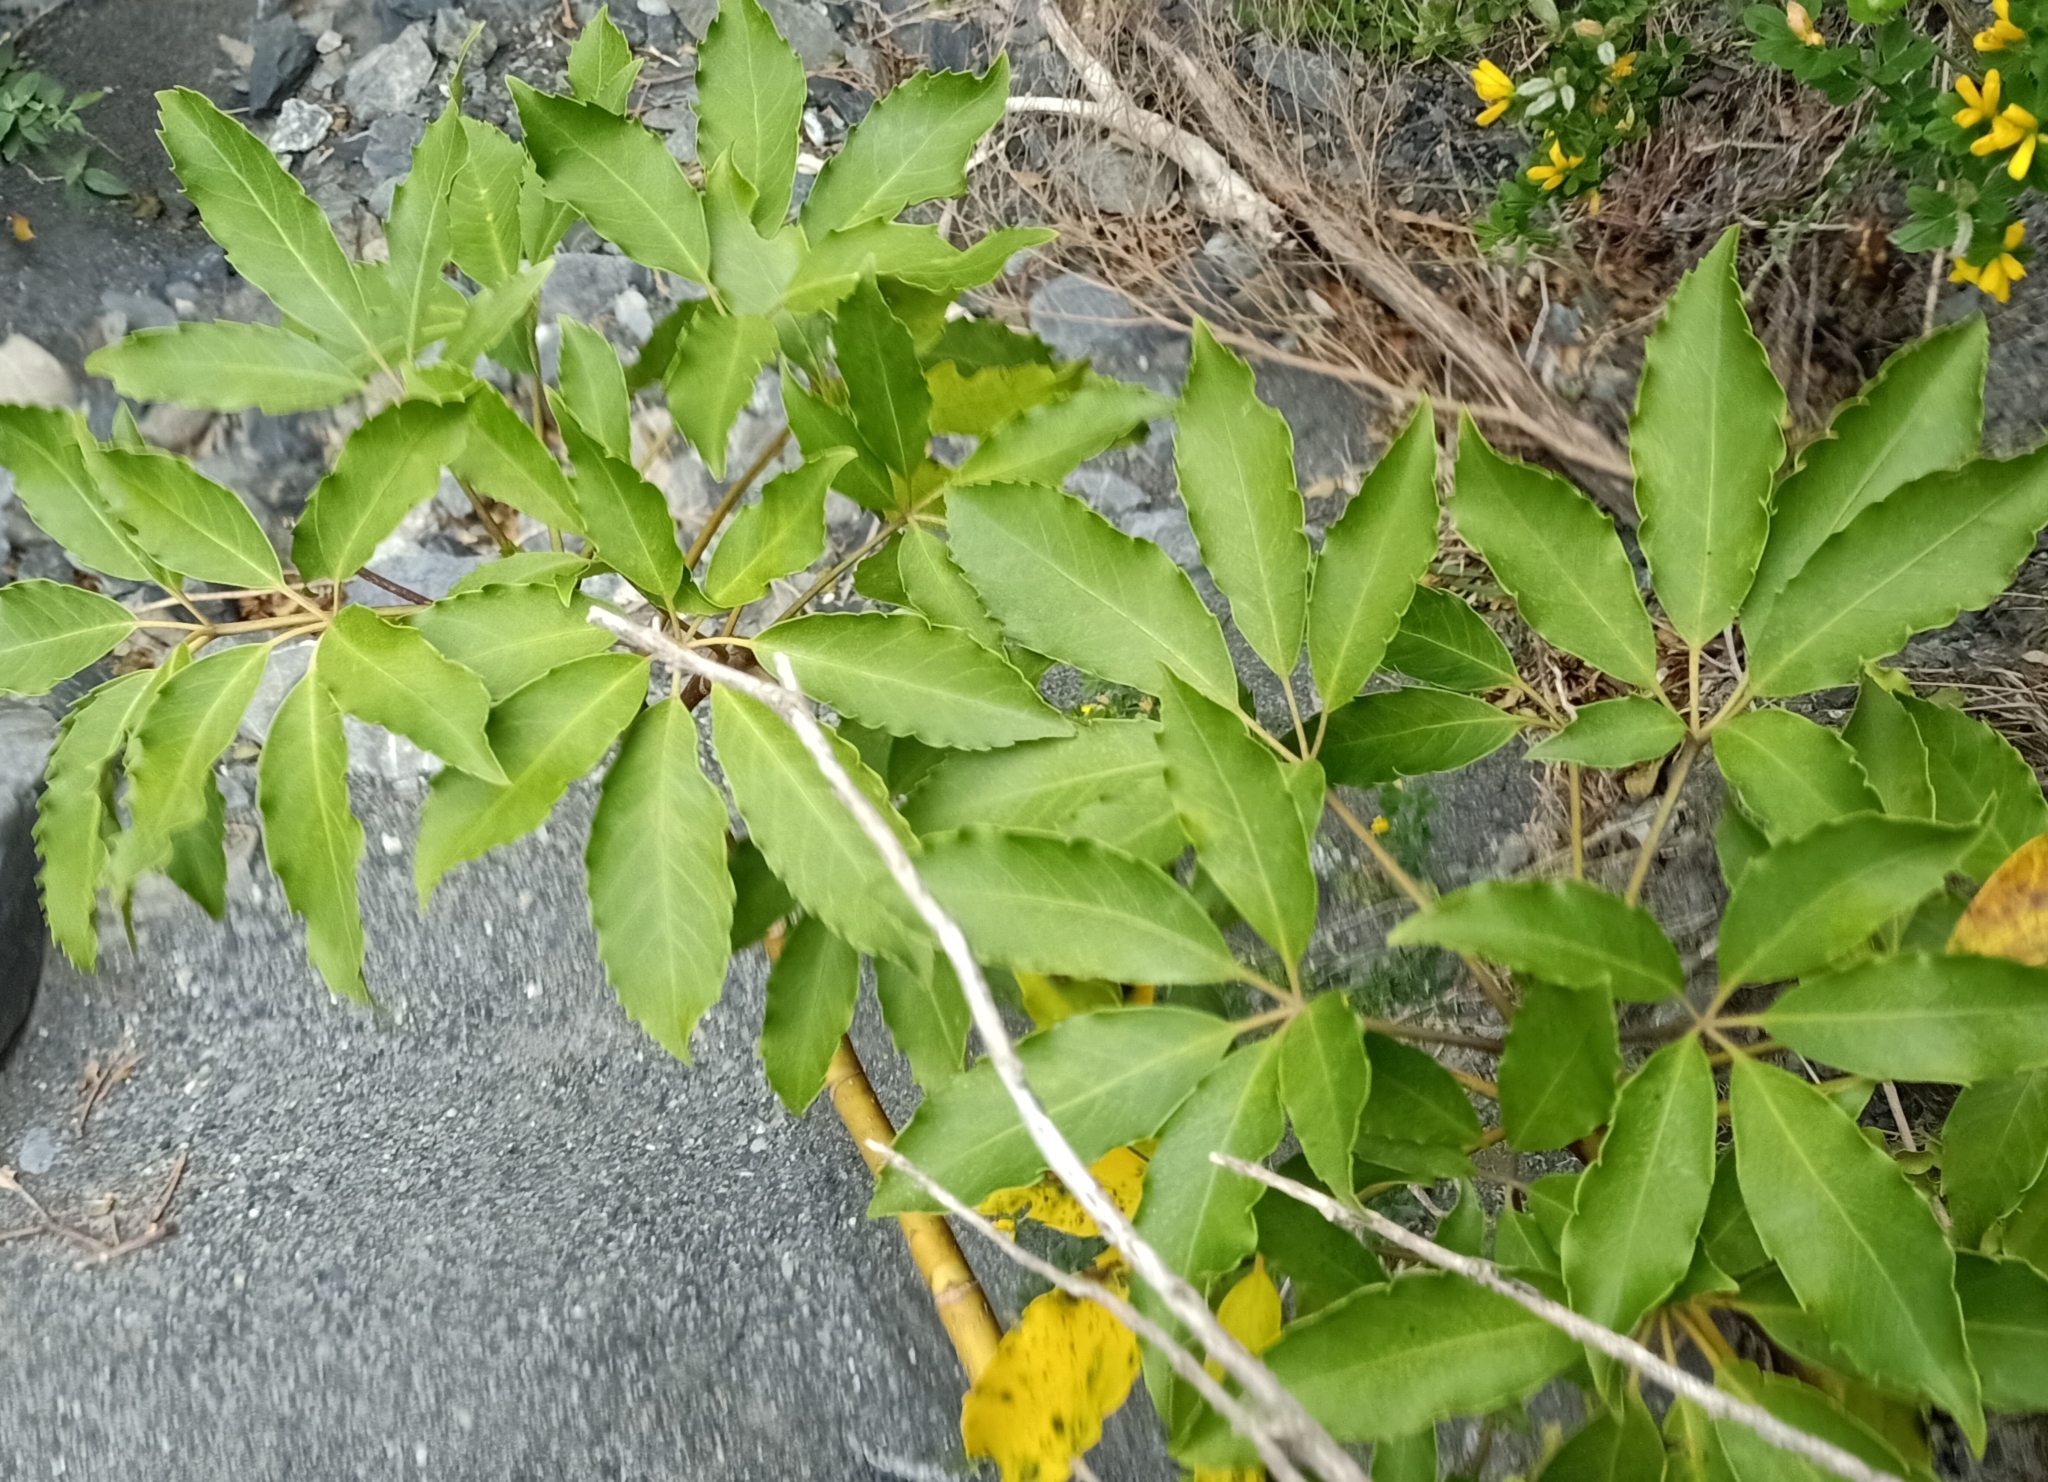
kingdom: Plantae
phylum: Tracheophyta
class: Magnoliopsida
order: Apiales
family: Araliaceae
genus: Neopanax
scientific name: Neopanax arboreus
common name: Five-fingers
